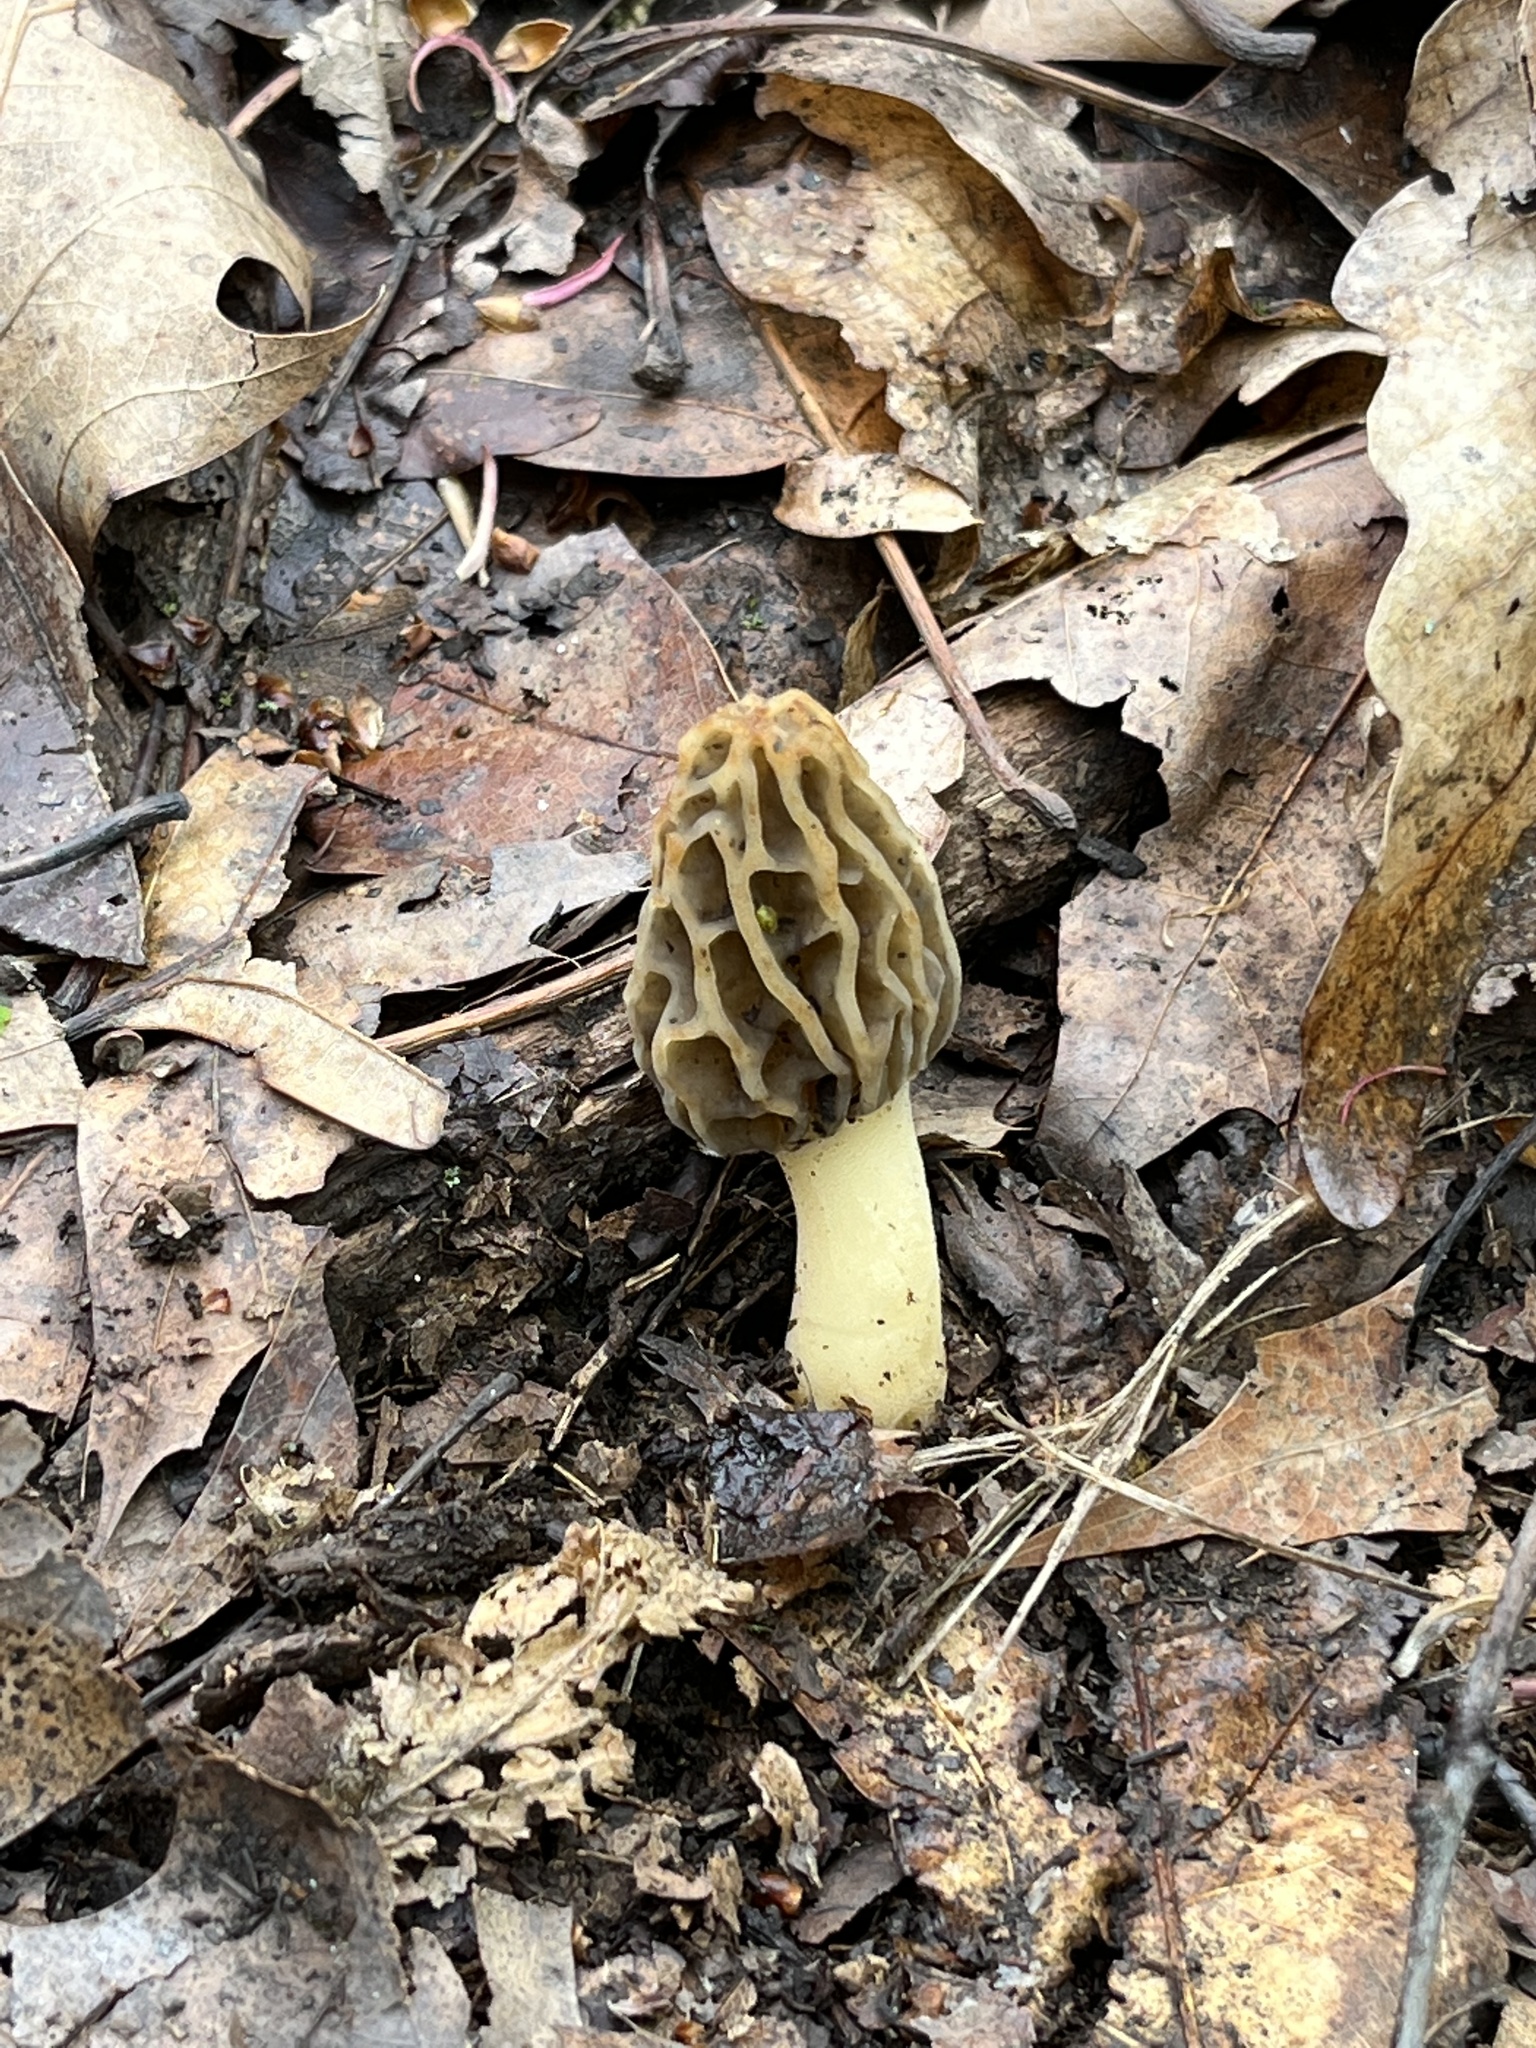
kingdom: Fungi
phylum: Ascomycota
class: Pezizomycetes
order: Pezizales
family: Morchellaceae
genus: Morchella
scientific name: Morchella diminutiva
